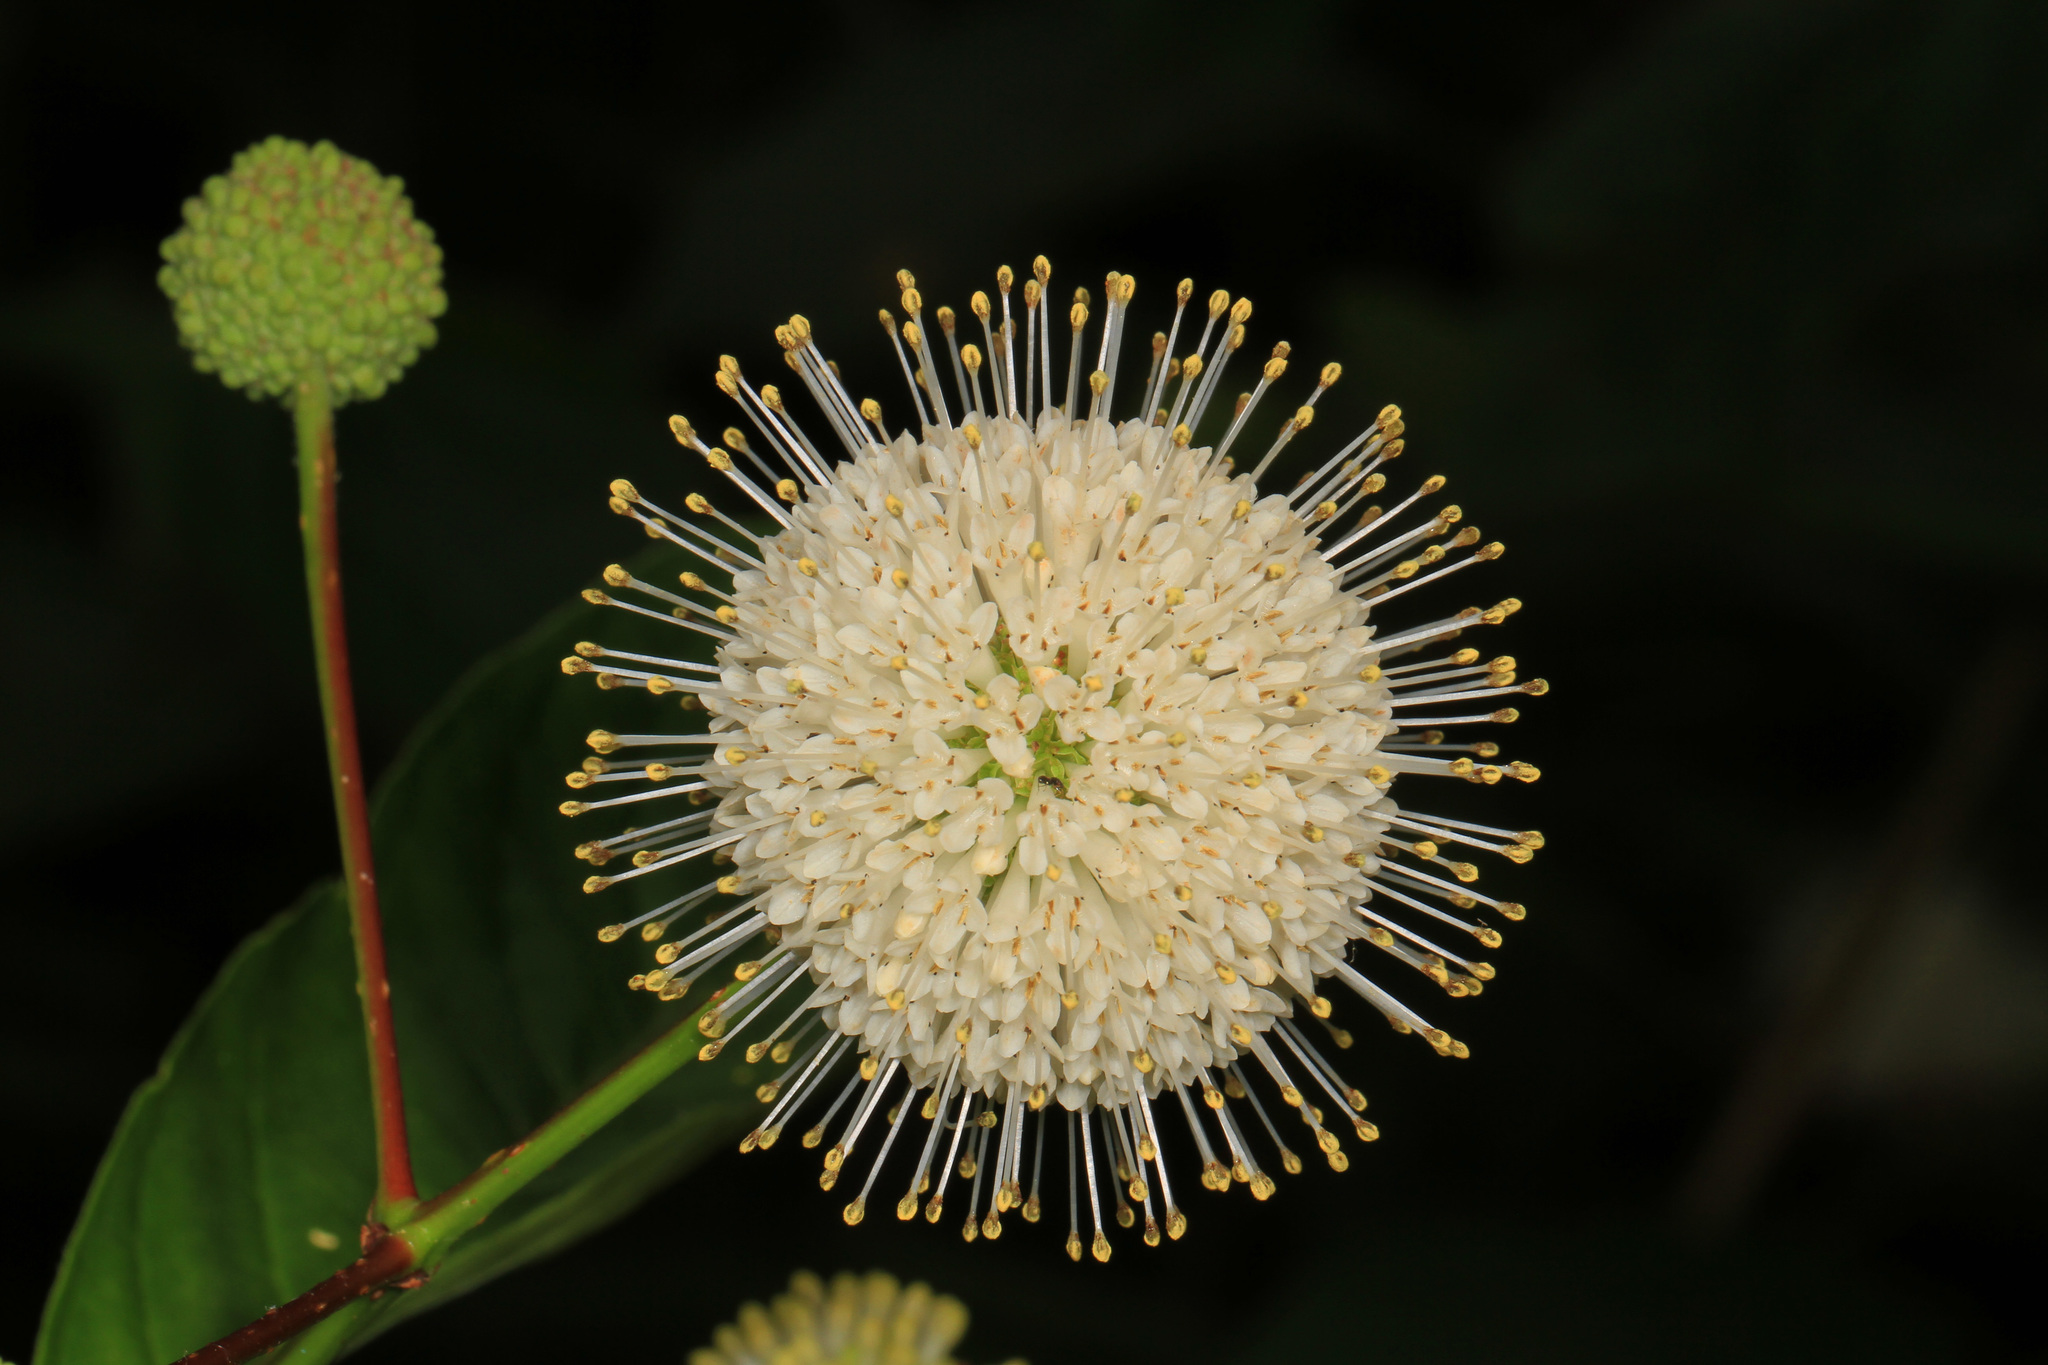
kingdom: Plantae
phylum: Tracheophyta
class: Magnoliopsida
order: Gentianales
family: Rubiaceae
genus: Cephalanthus
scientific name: Cephalanthus occidentalis
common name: Button-willow
